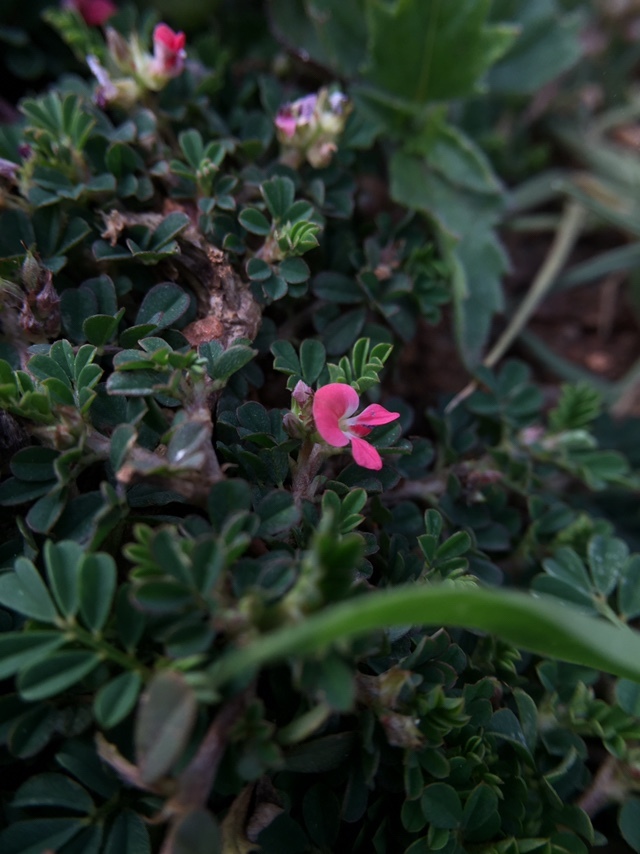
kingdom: Plantae
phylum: Tracheophyta
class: Magnoliopsida
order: Fabales
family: Fabaceae
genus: Indigofera
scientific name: Indigofera linnaei
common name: Nine-leaf indigo
